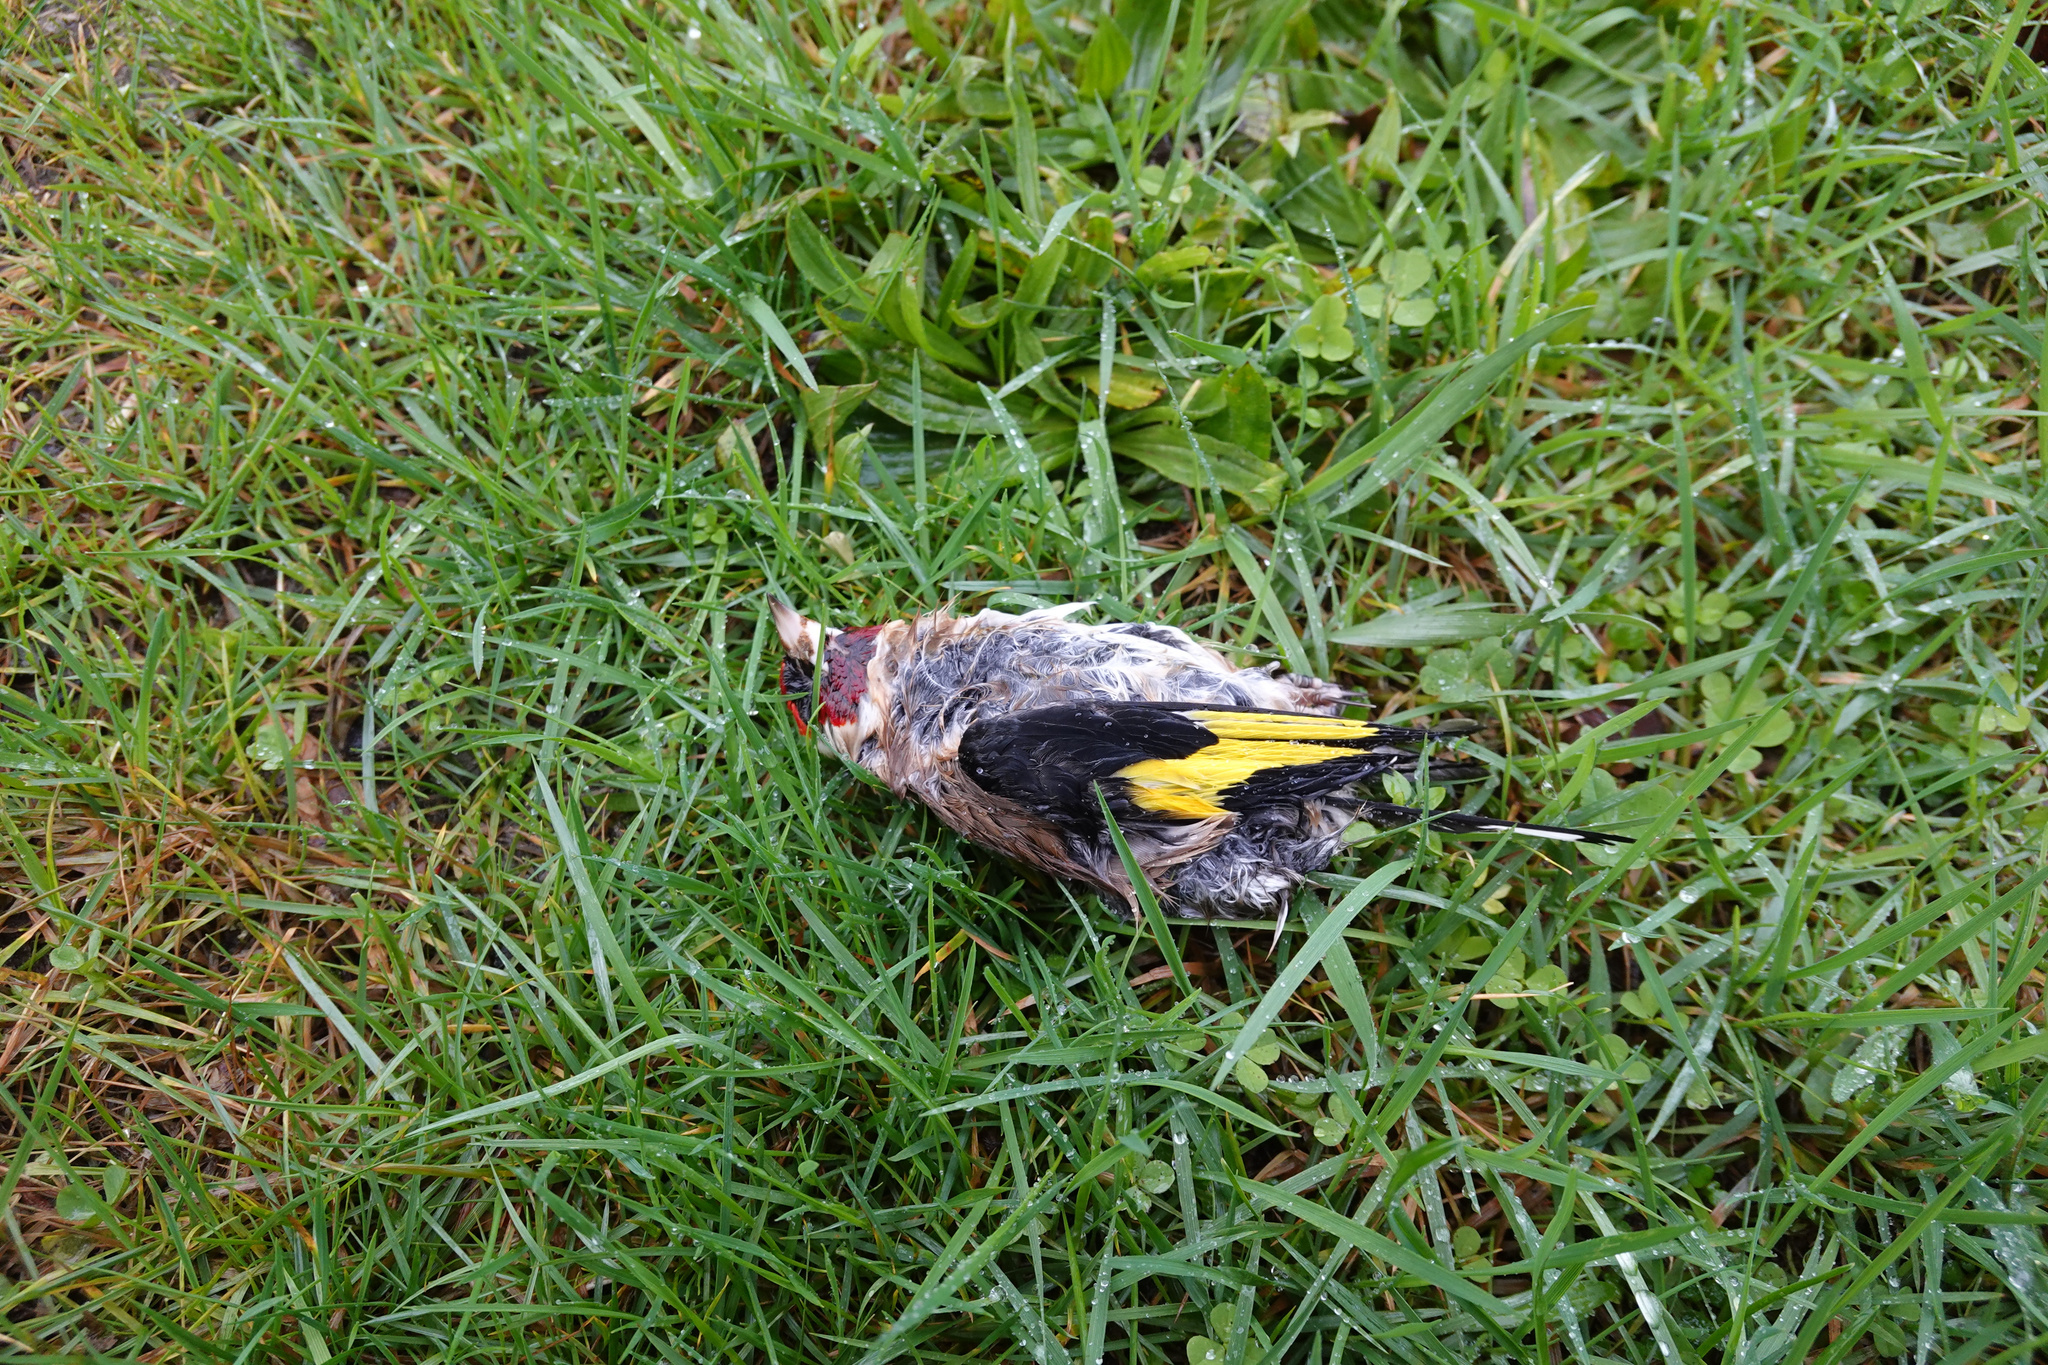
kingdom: Animalia
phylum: Chordata
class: Aves
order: Passeriformes
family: Fringillidae
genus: Carduelis
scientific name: Carduelis carduelis
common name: European goldfinch
